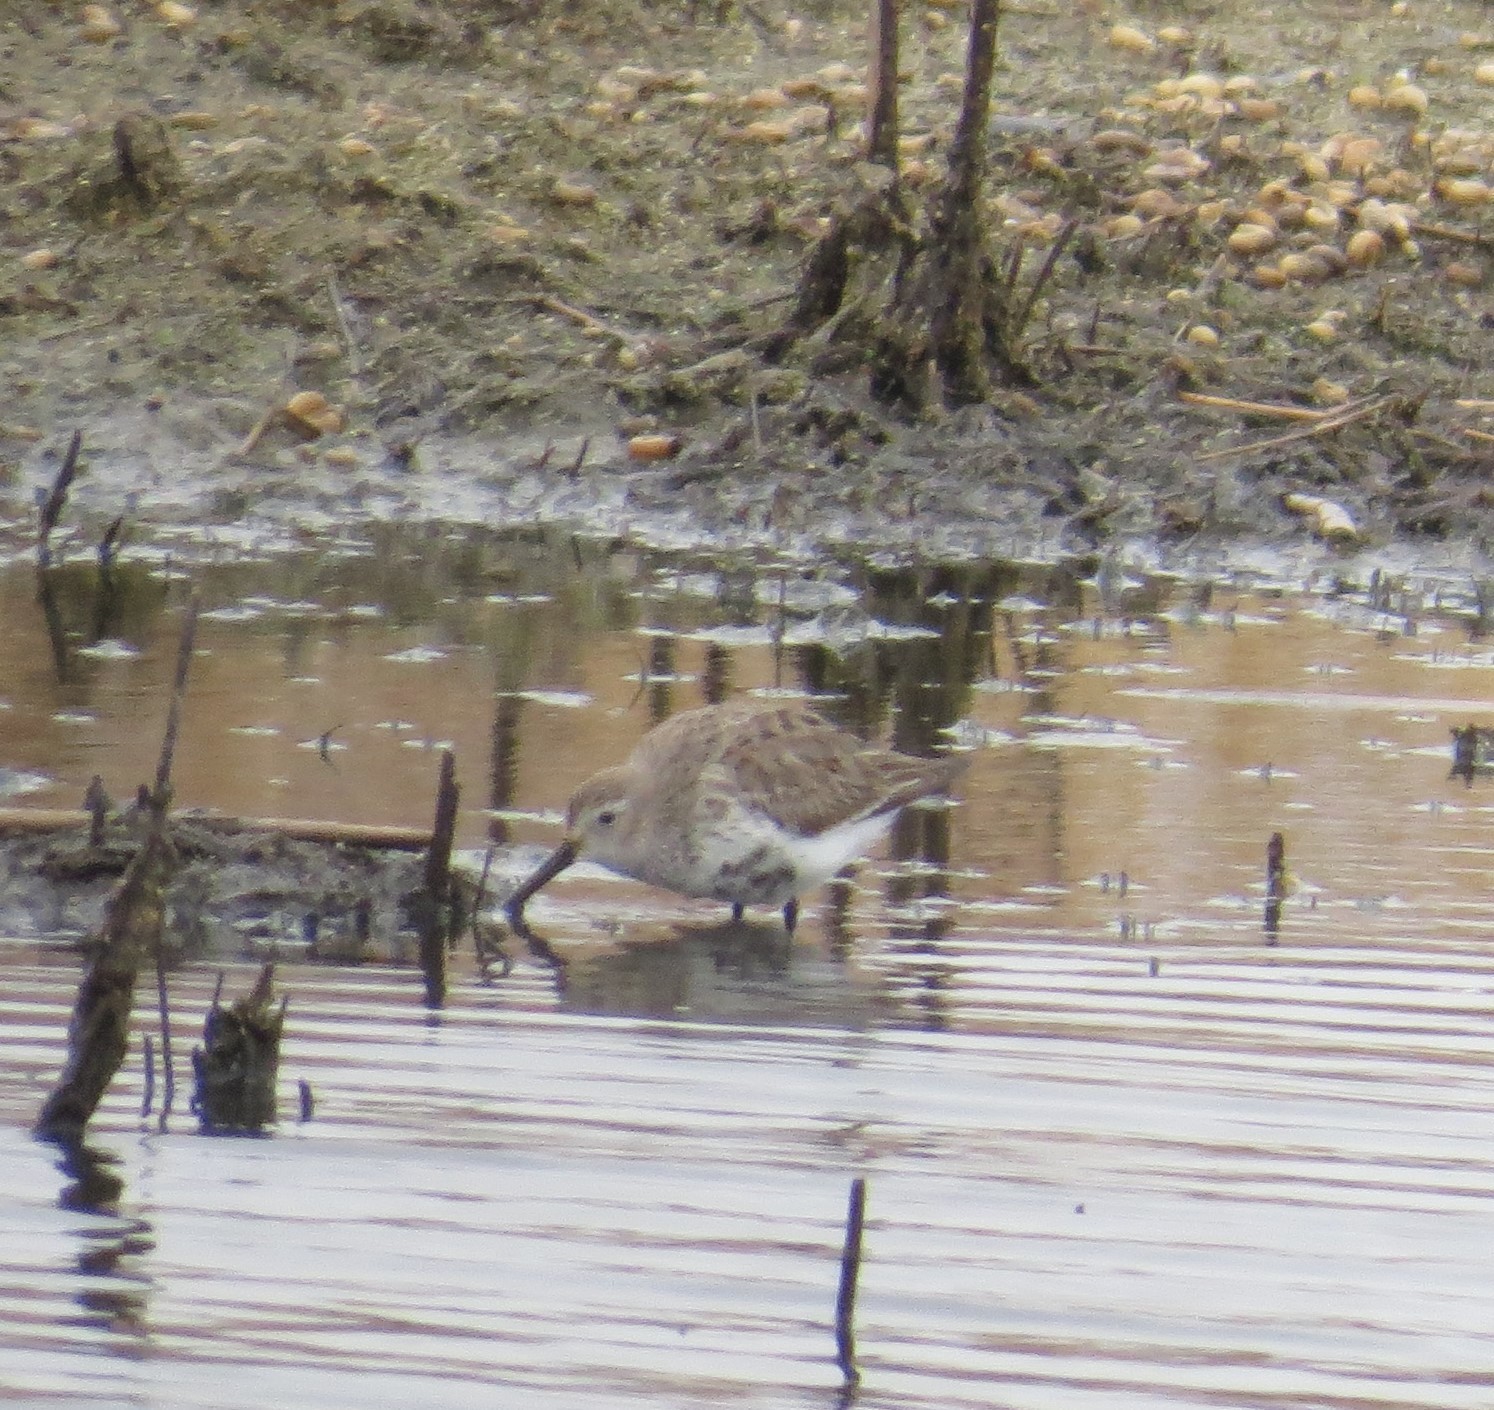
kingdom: Animalia
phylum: Chordata
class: Aves
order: Charadriiformes
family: Scolopacidae
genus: Calidris
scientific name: Calidris alpina
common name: Dunlin
